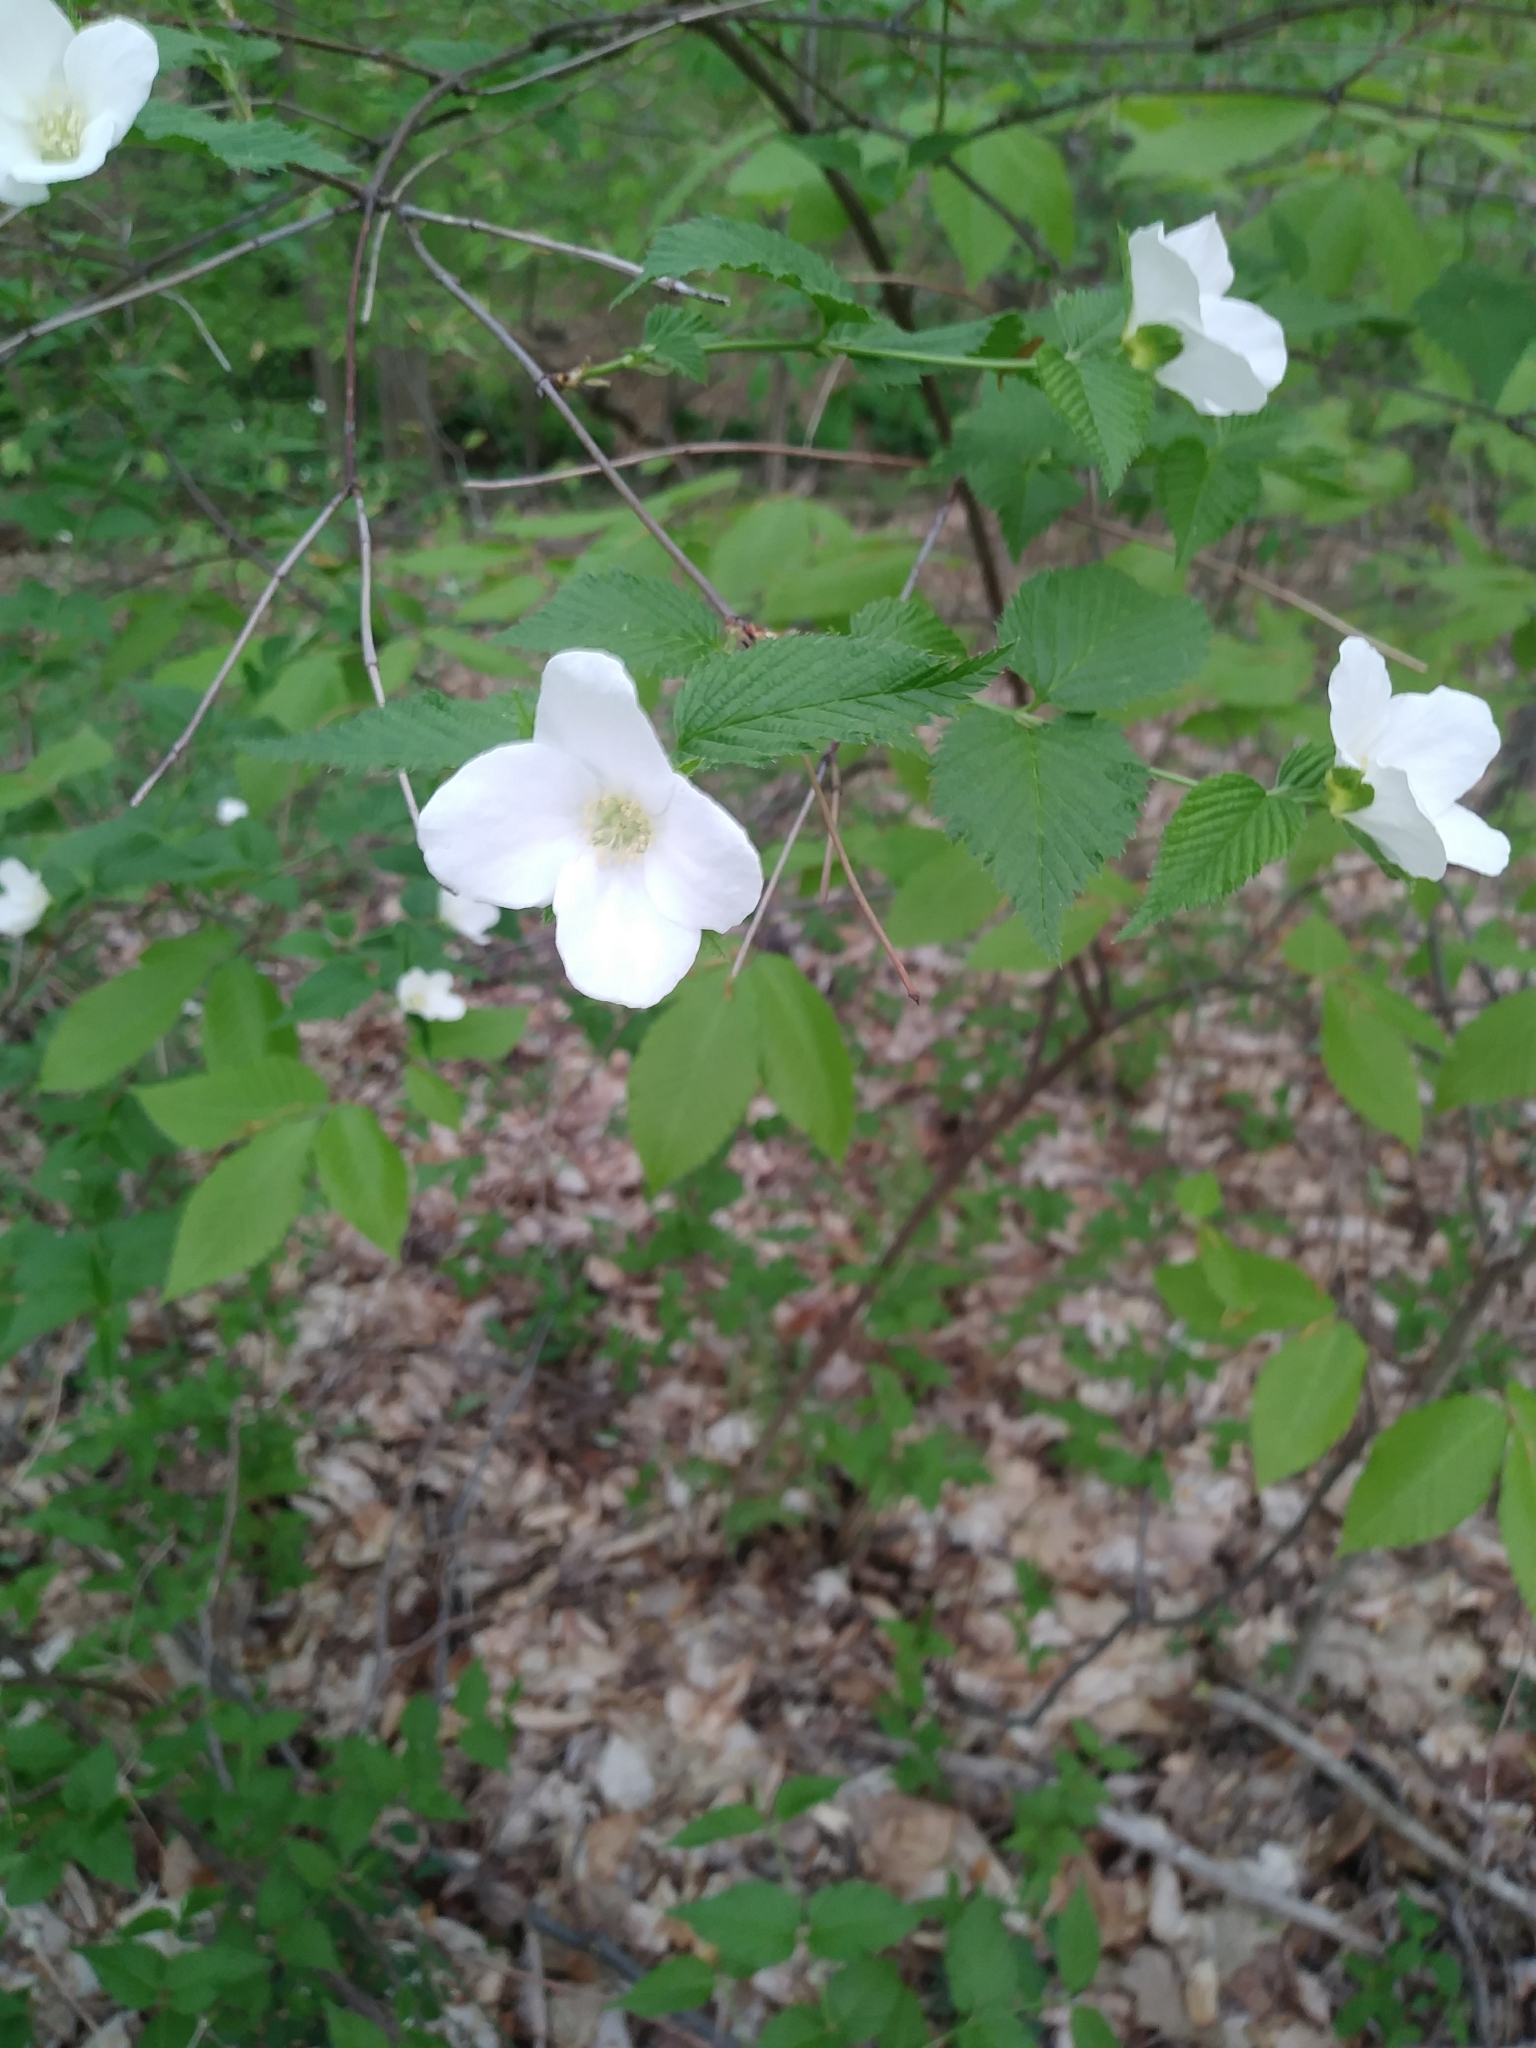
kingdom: Plantae
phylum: Tracheophyta
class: Magnoliopsida
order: Rosales
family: Rosaceae
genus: Rhodotypos
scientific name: Rhodotypos scandens
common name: Jetbead
